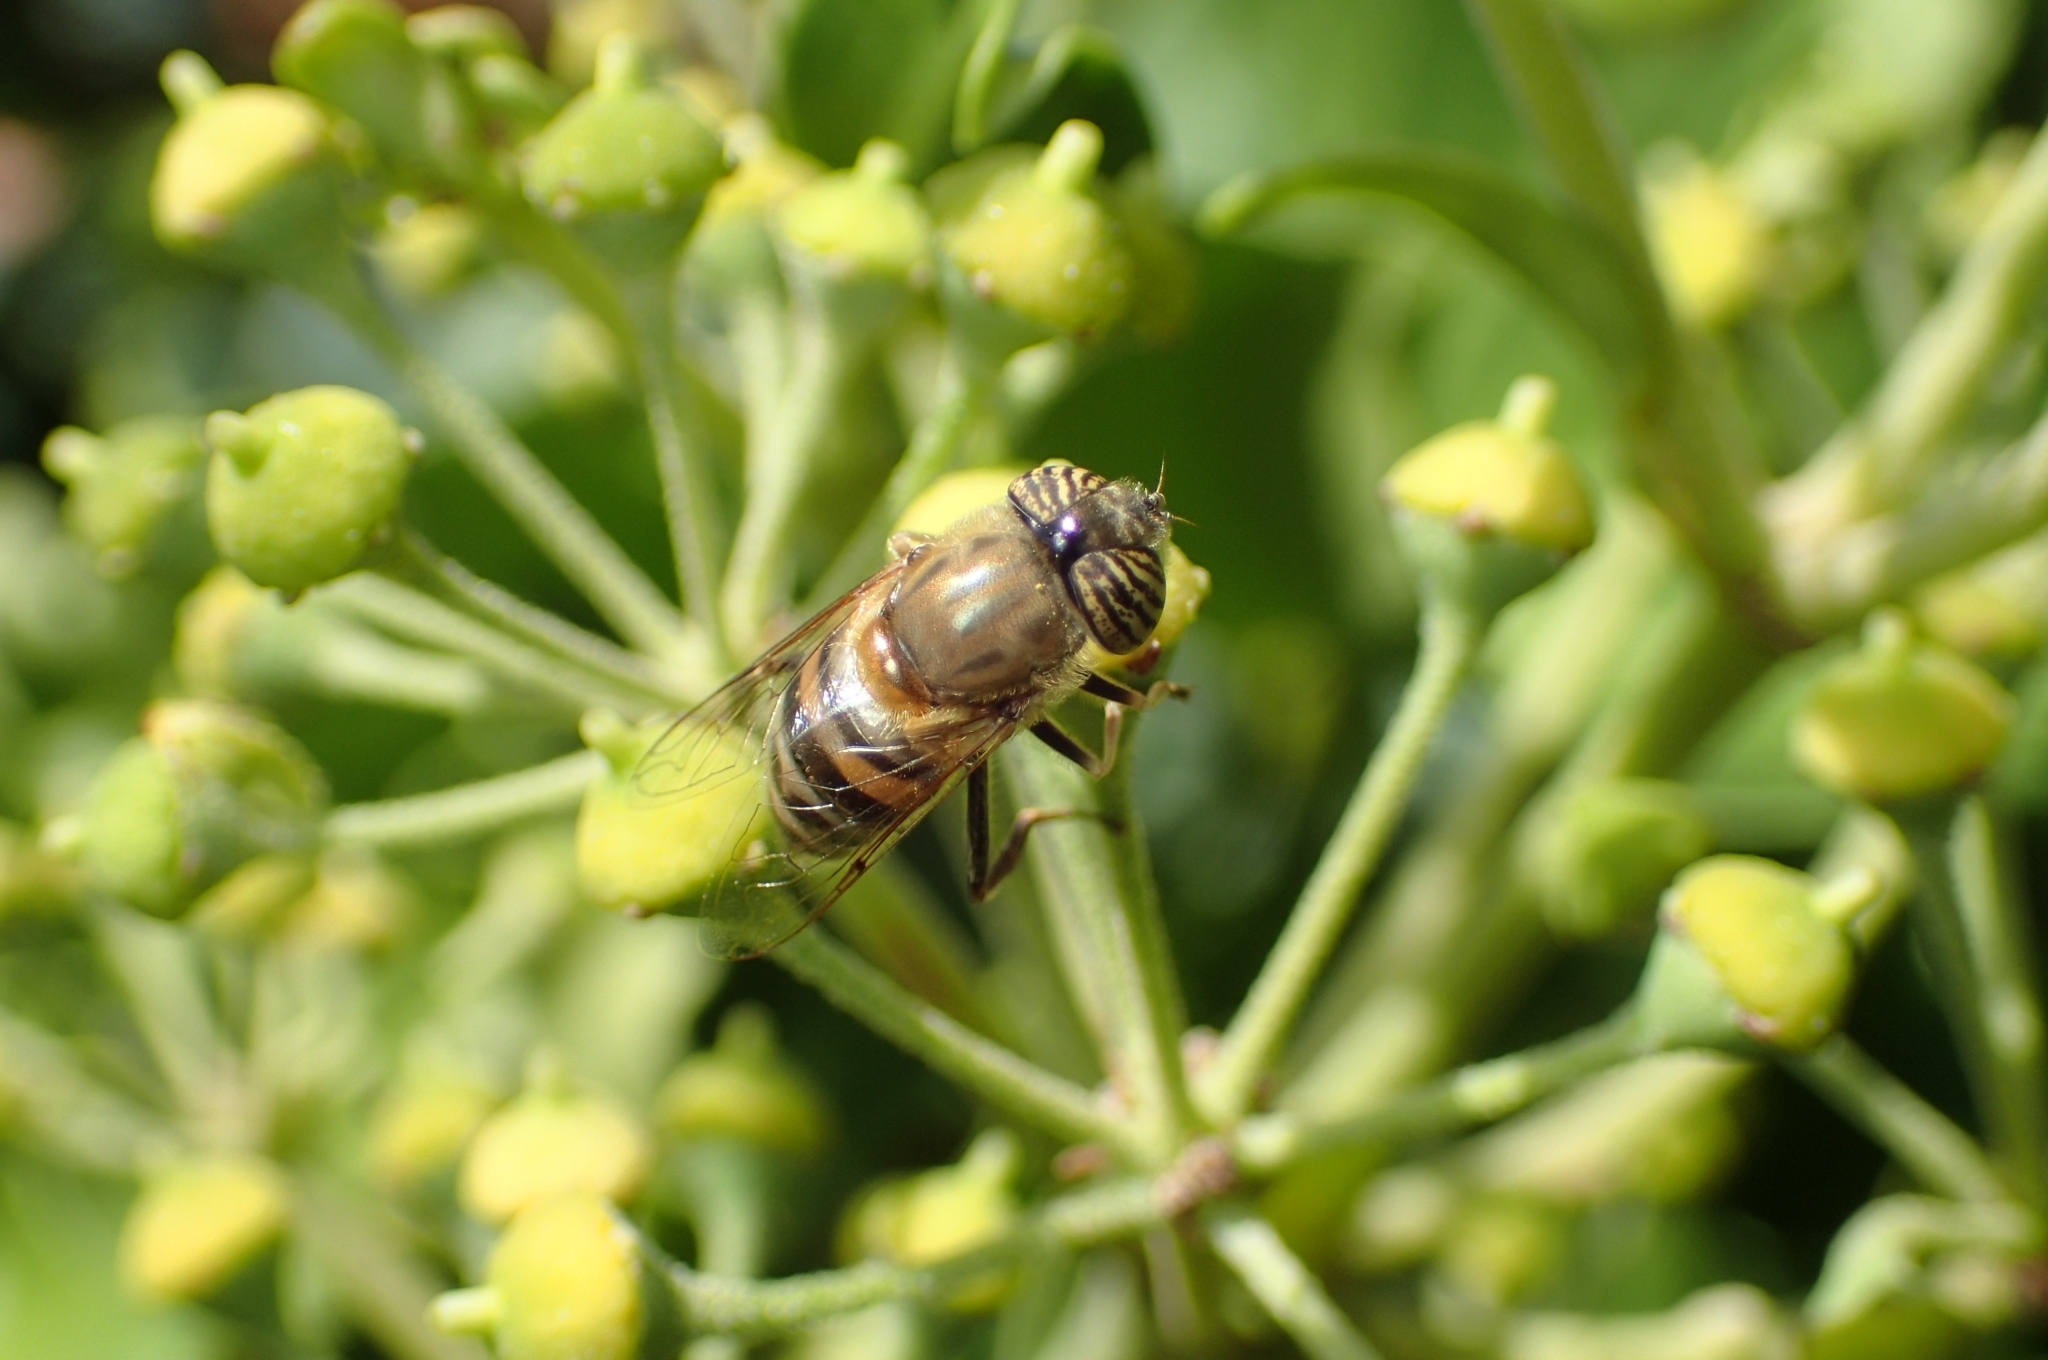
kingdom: Animalia
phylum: Arthropoda
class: Insecta
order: Diptera
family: Syrphidae
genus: Eristalinus
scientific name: Eristalinus taeniops
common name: Syrphid fly
